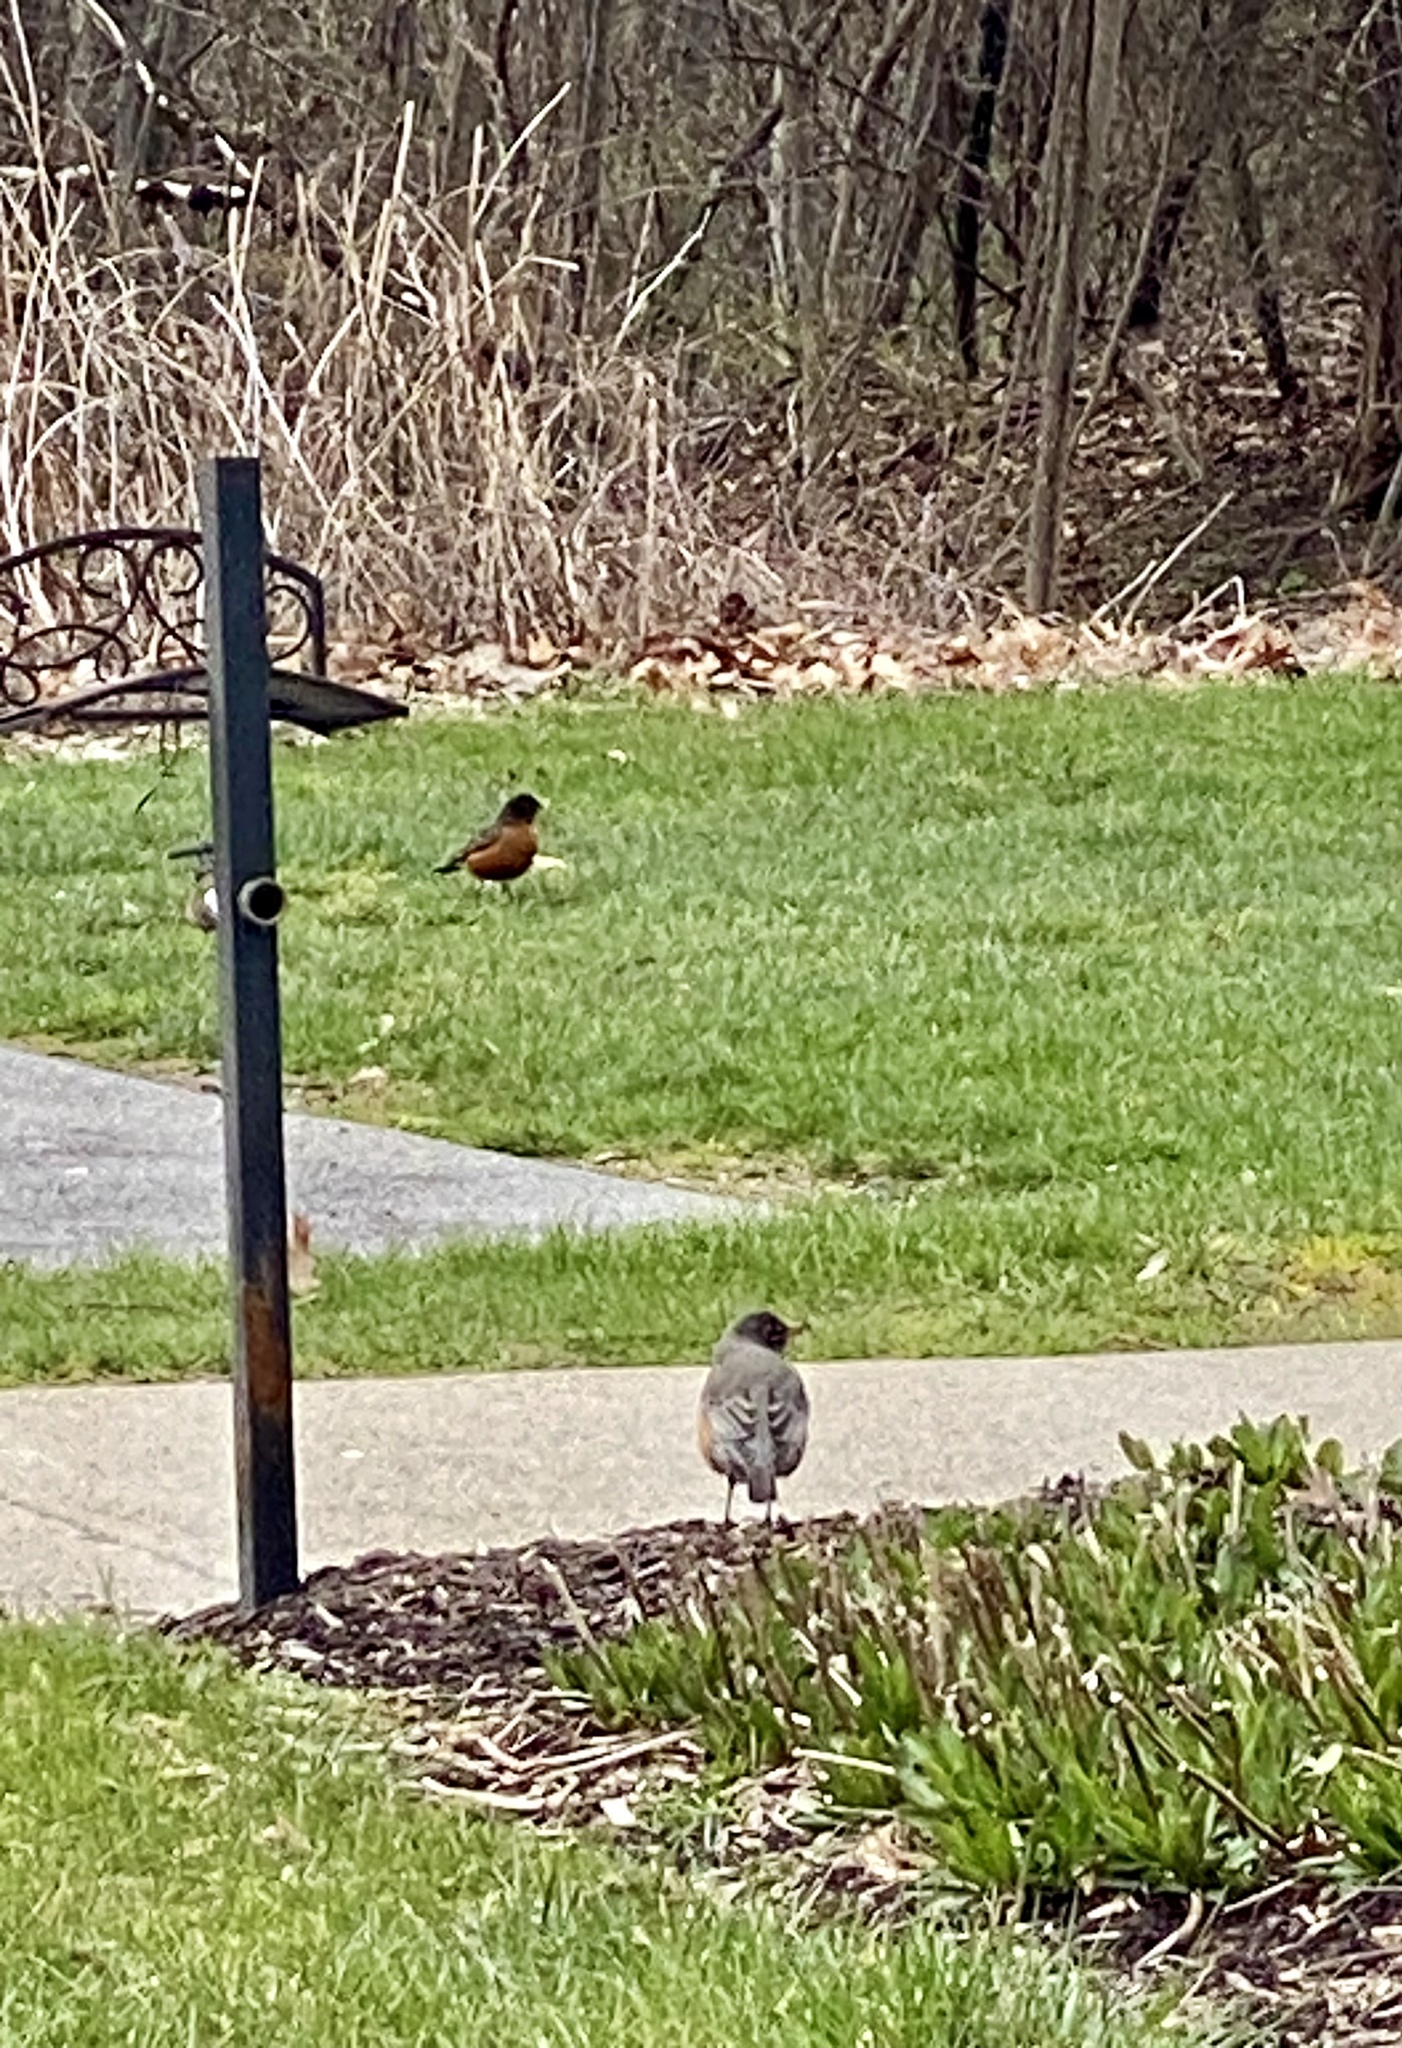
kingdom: Animalia
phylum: Chordata
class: Aves
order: Passeriformes
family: Turdidae
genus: Turdus
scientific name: Turdus migratorius
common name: American robin
